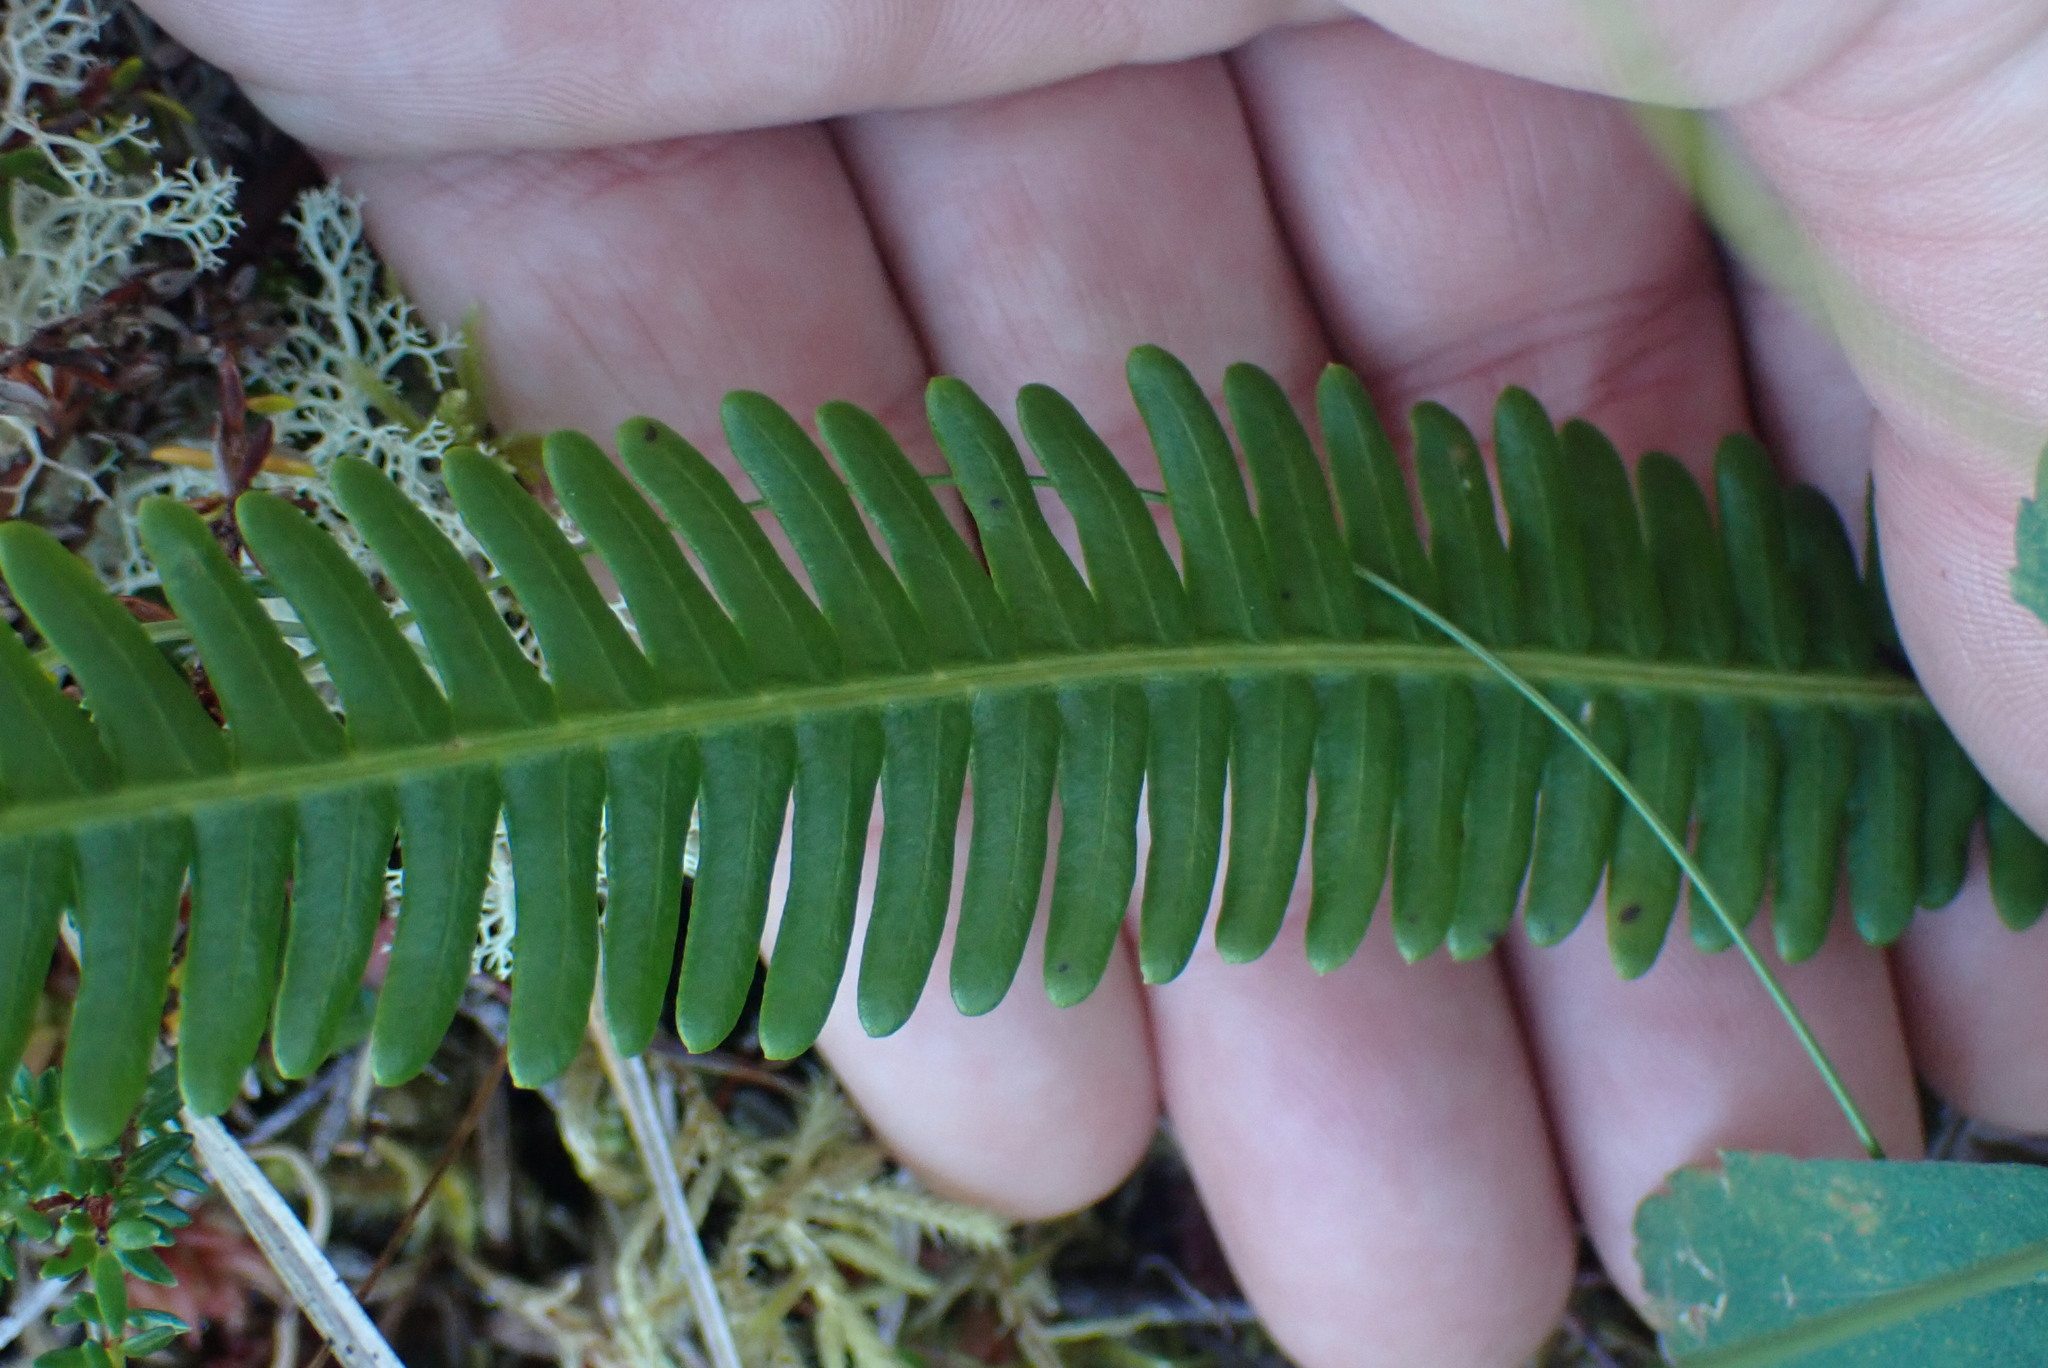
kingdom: Plantae
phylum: Tracheophyta
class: Polypodiopsida
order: Polypodiales
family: Blechnaceae
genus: Struthiopteris
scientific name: Struthiopteris spicant
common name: Deer fern
